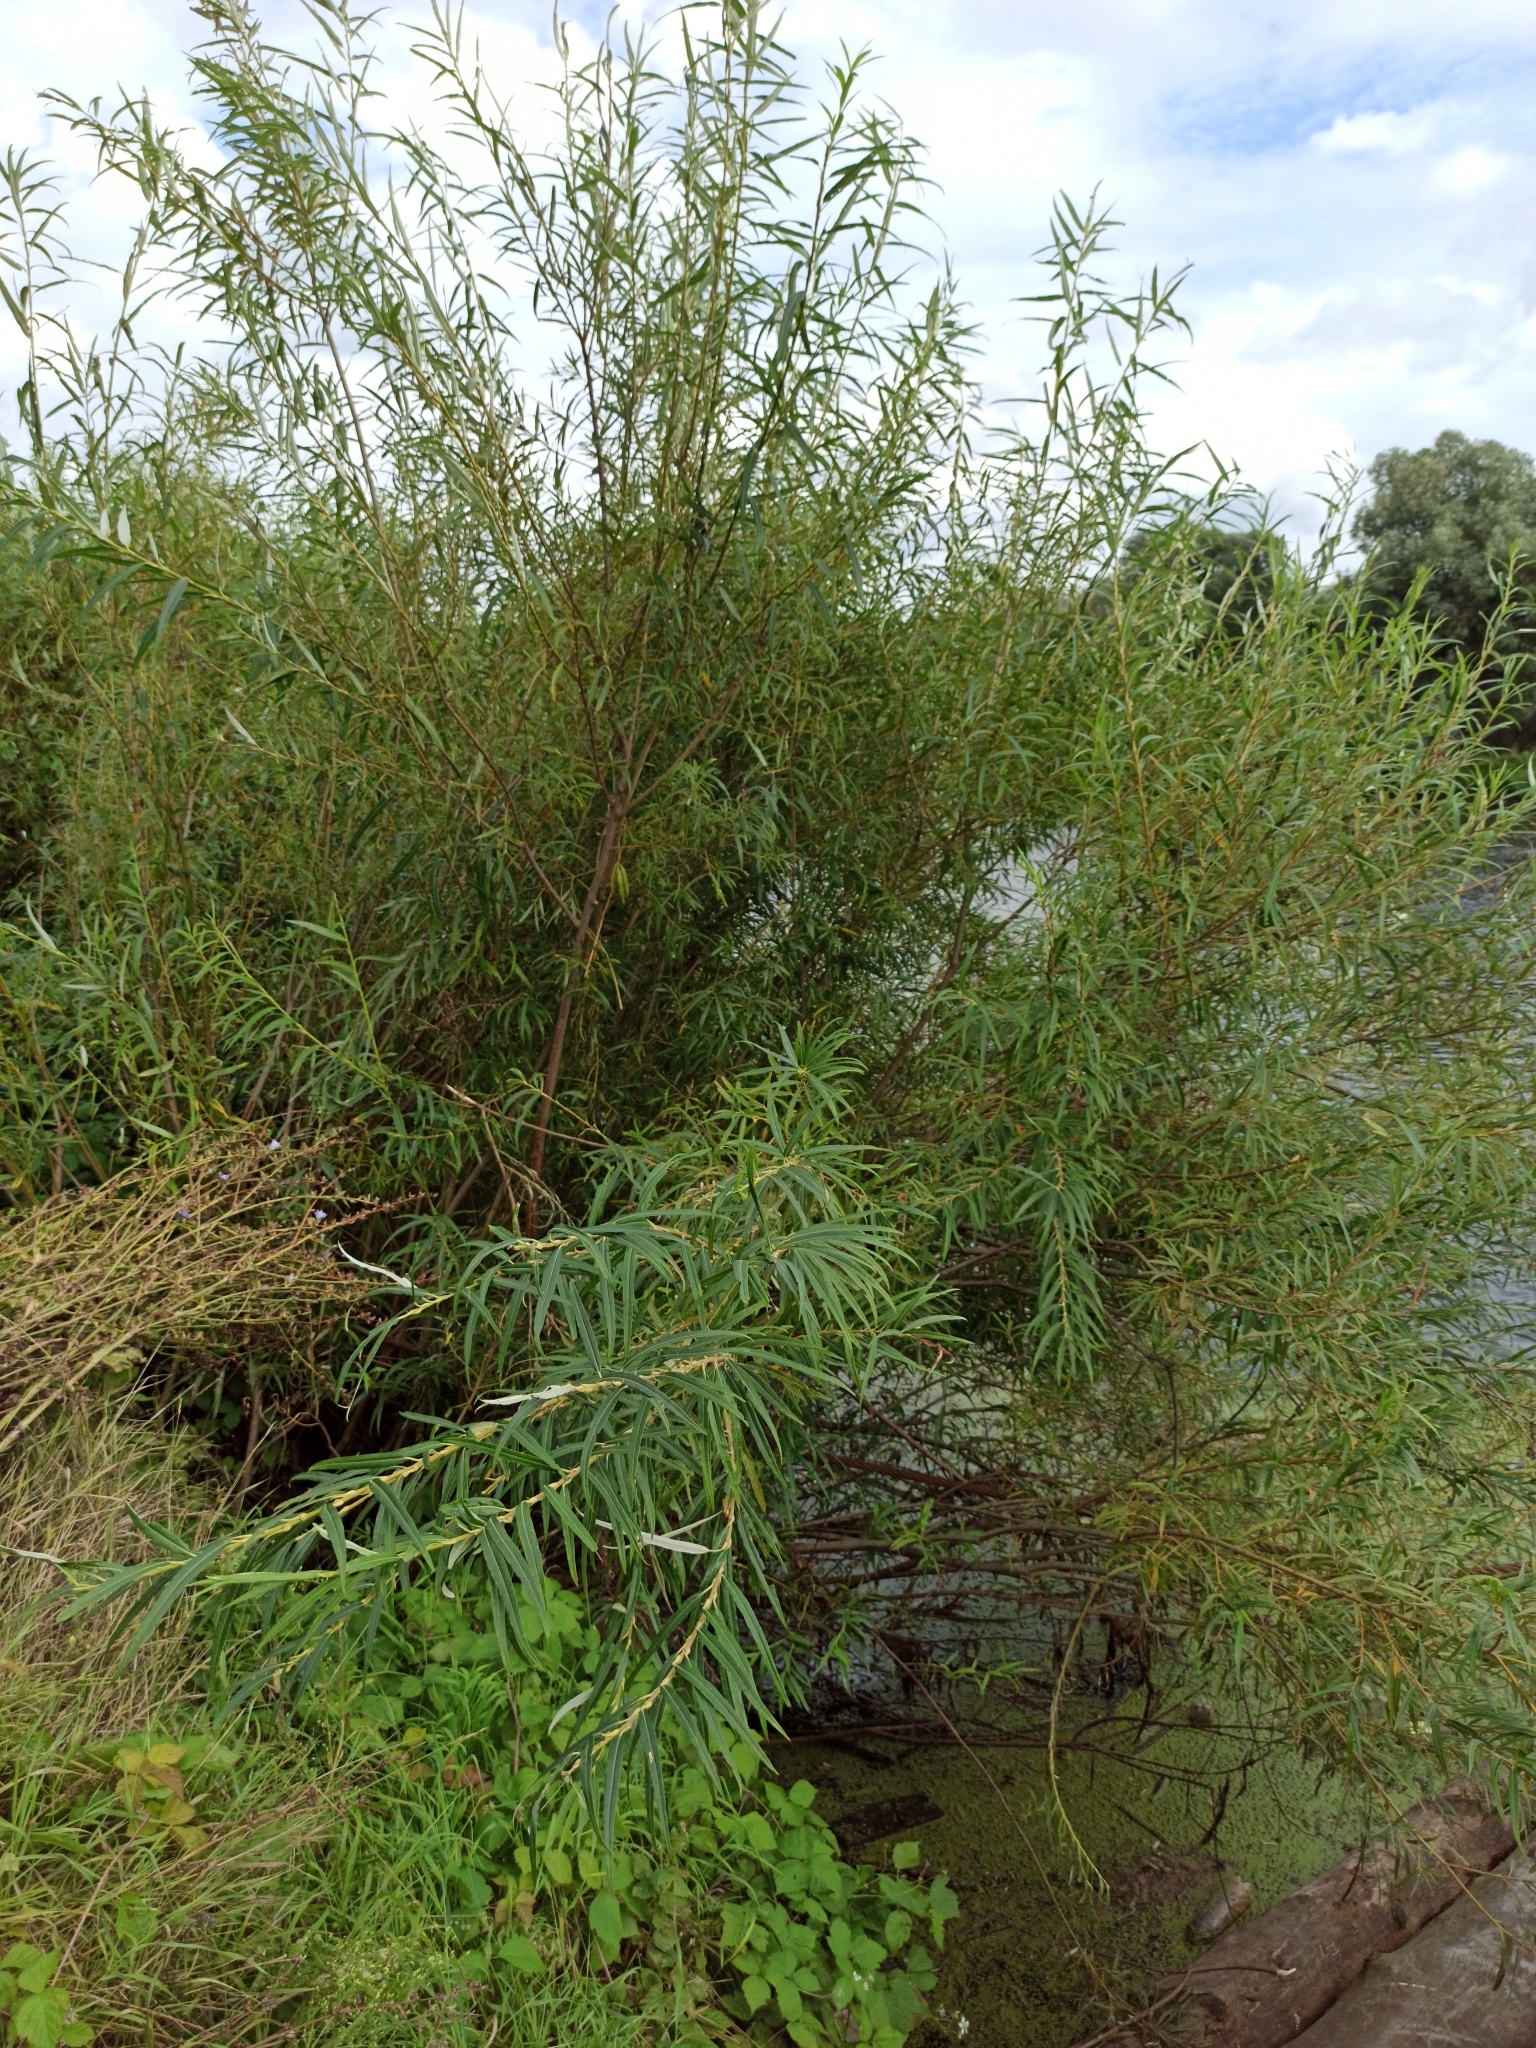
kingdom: Plantae
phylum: Tracheophyta
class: Magnoliopsida
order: Malpighiales
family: Salicaceae
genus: Salix
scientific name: Salix viminalis
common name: Osier
